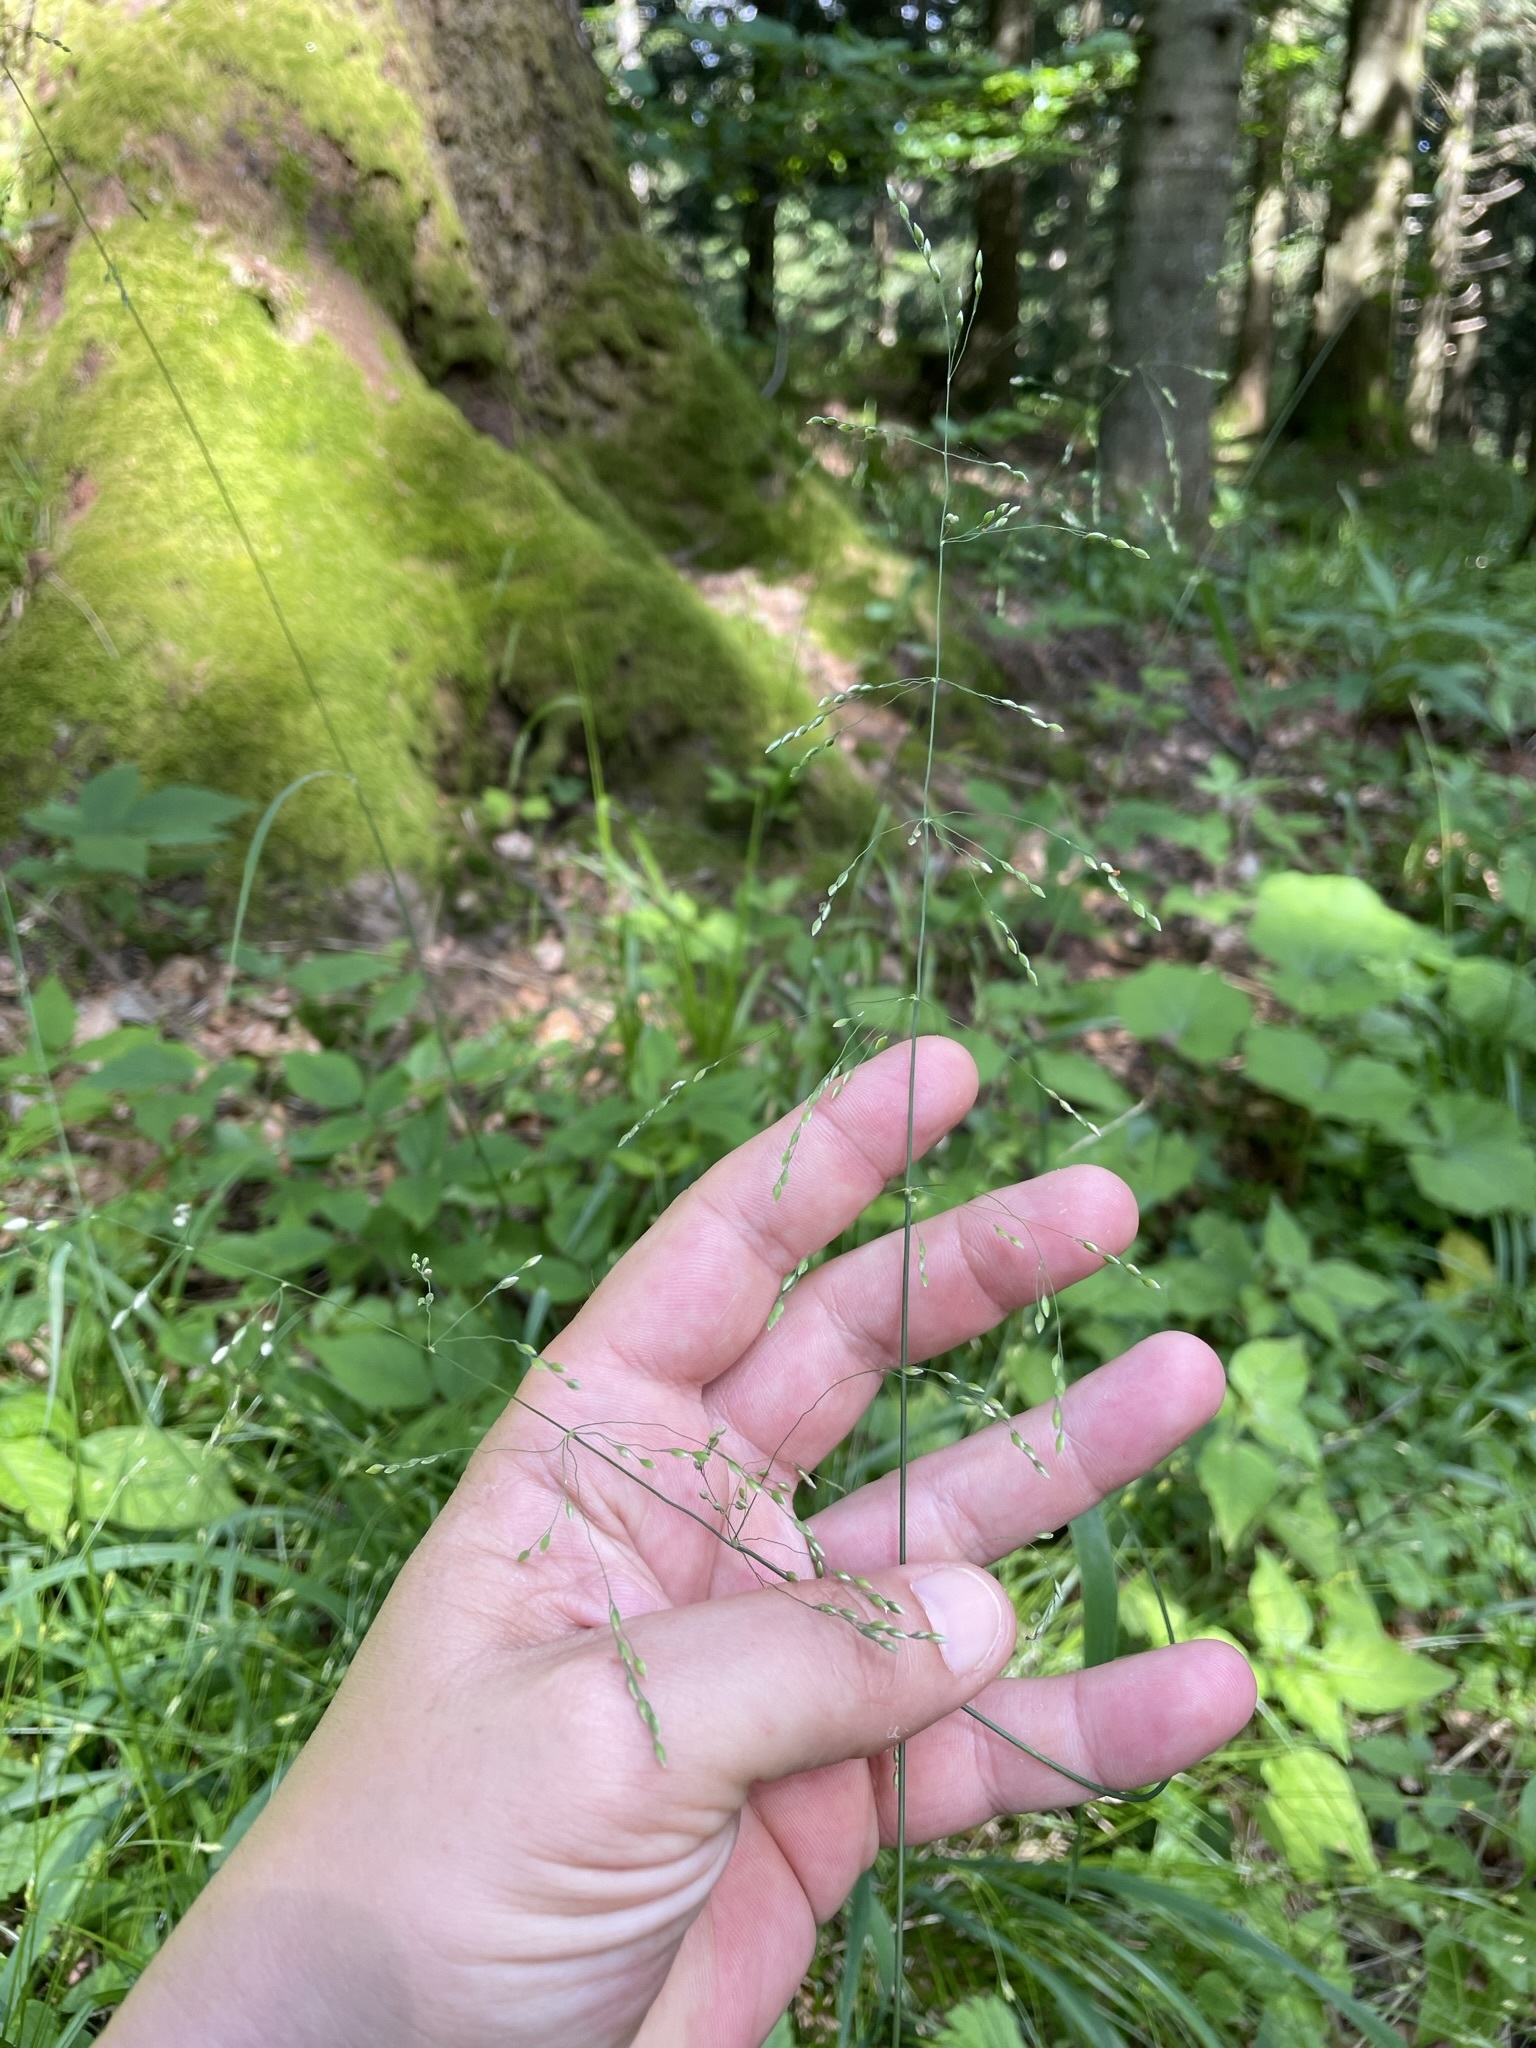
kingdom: Plantae
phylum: Tracheophyta
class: Liliopsida
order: Poales
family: Poaceae
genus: Milium
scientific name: Milium effusum
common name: Wood millet
